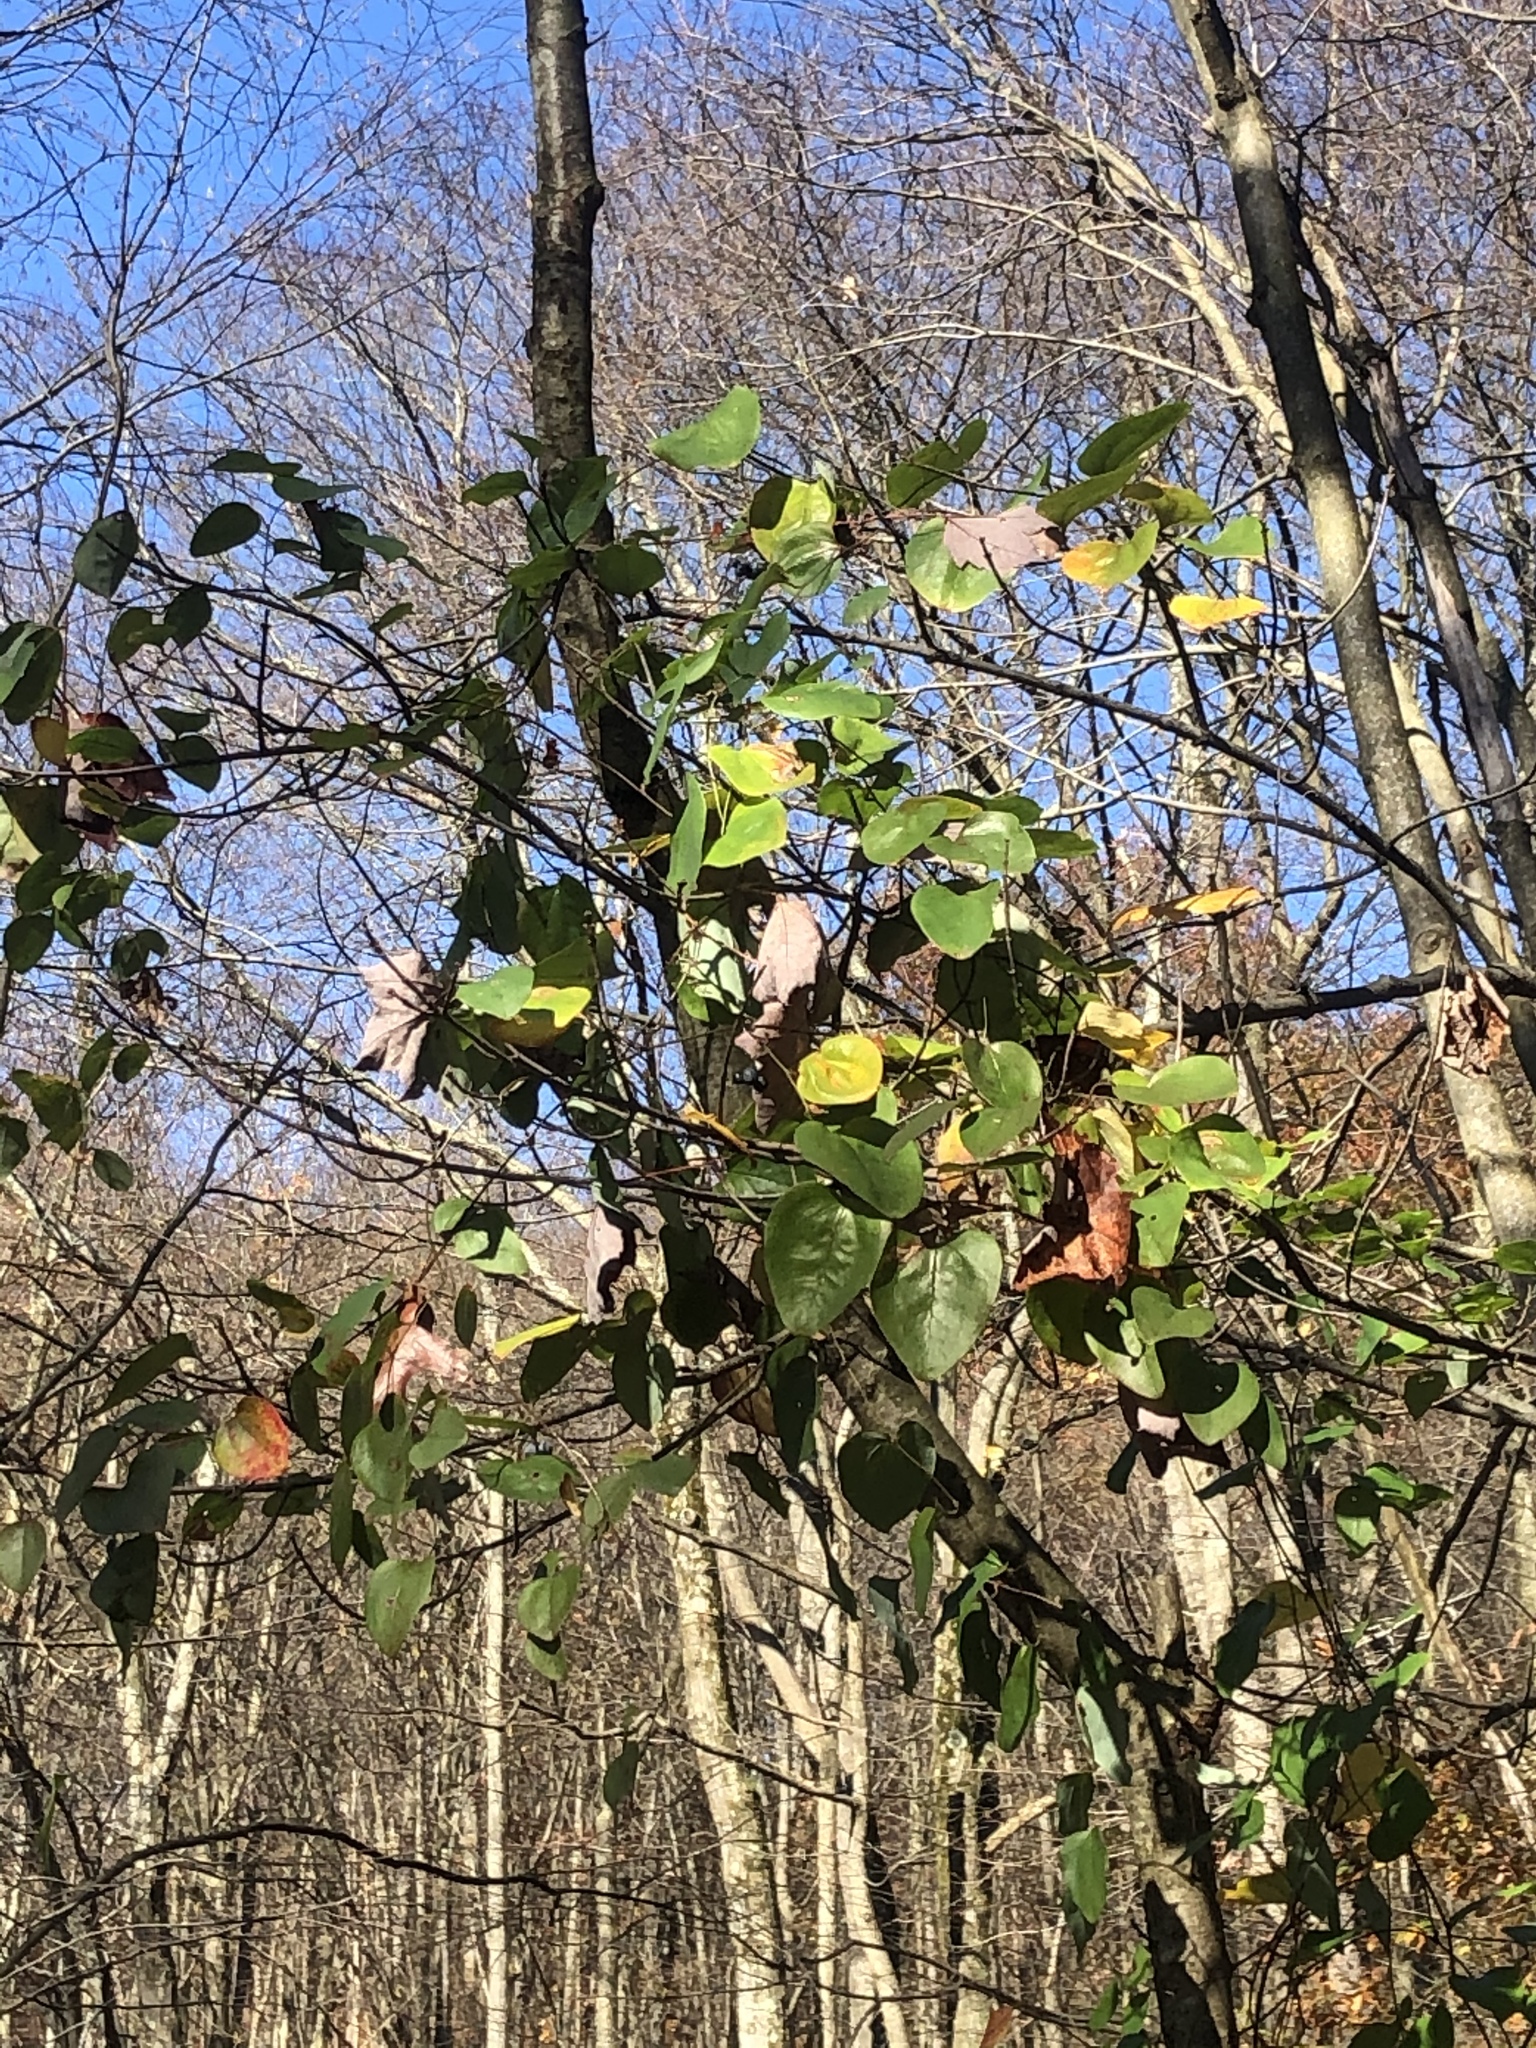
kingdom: Plantae
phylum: Tracheophyta
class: Liliopsida
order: Liliales
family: Smilacaceae
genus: Smilax
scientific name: Smilax rotundifolia
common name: Bullbriar
